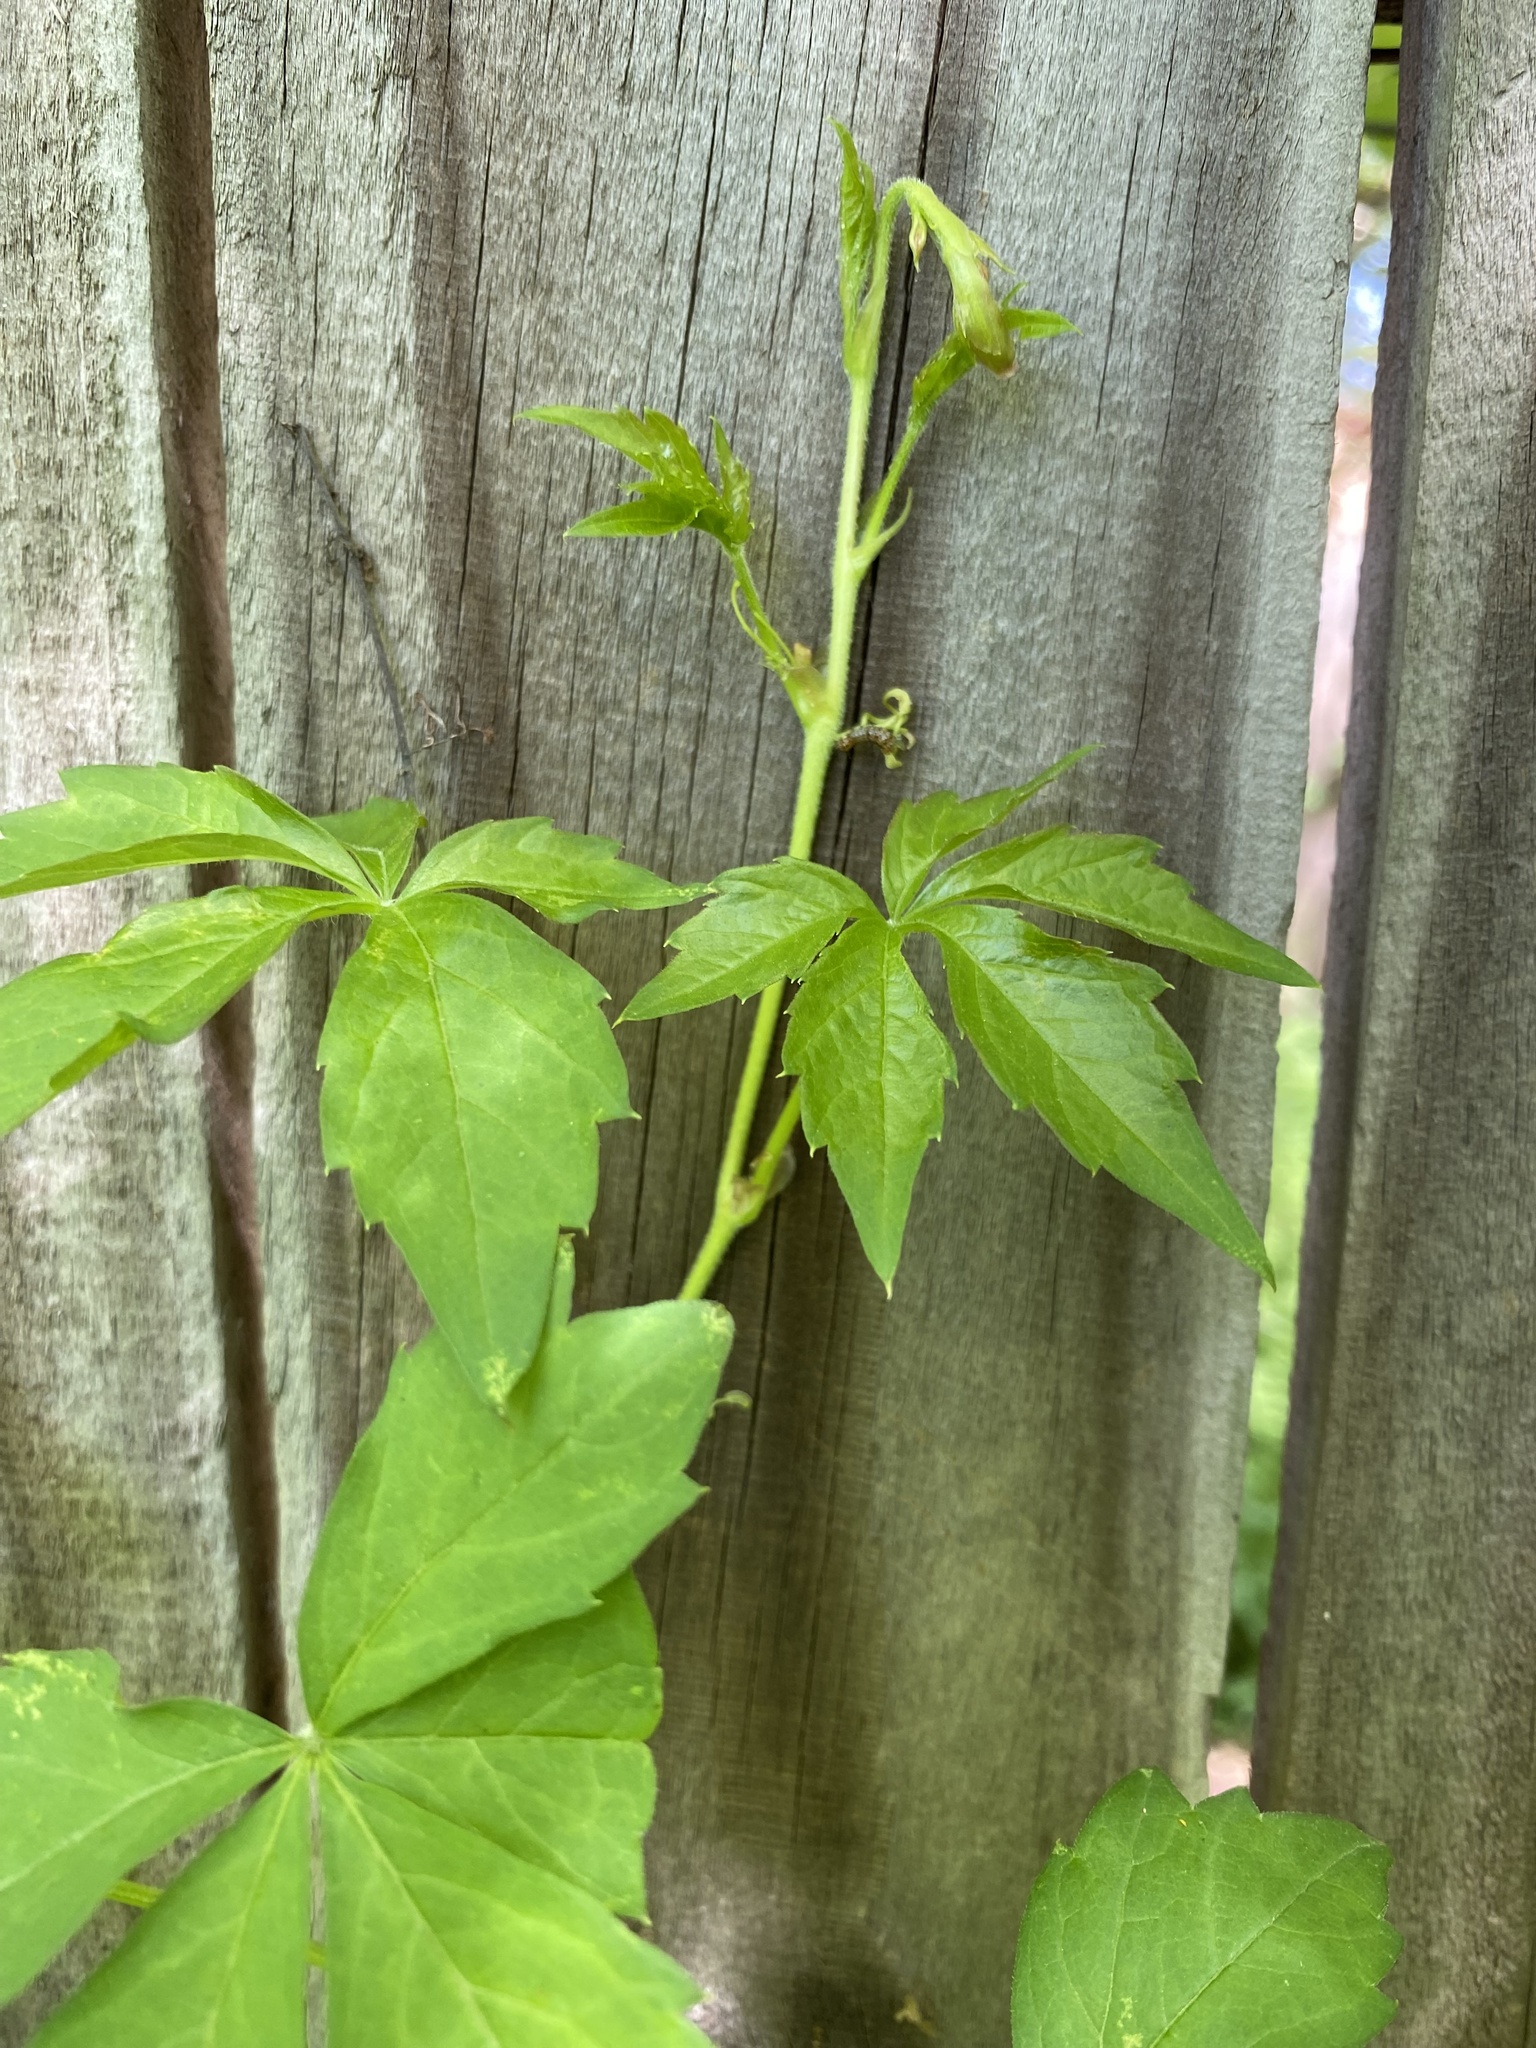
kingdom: Plantae
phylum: Tracheophyta
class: Magnoliopsida
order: Vitales
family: Vitaceae
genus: Parthenocissus
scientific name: Parthenocissus quinquefolia
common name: Virginia-creeper
